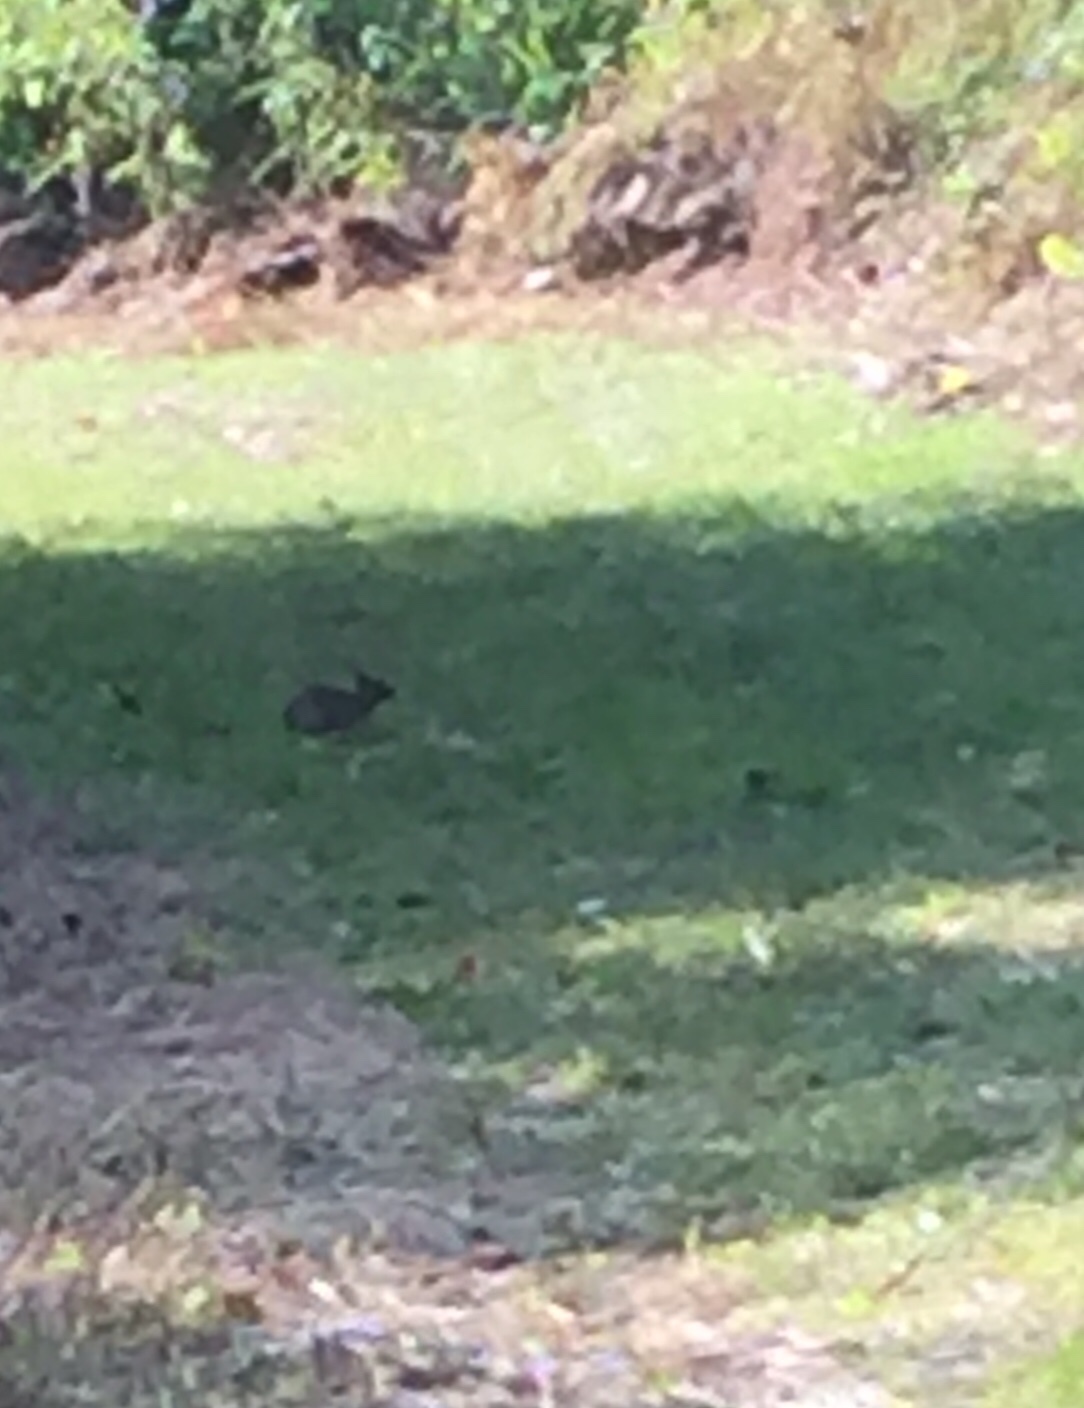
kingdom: Animalia
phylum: Chordata
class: Mammalia
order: Lagomorpha
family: Leporidae
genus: Sylvilagus
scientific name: Sylvilagus floridanus
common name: Eastern cottontail
